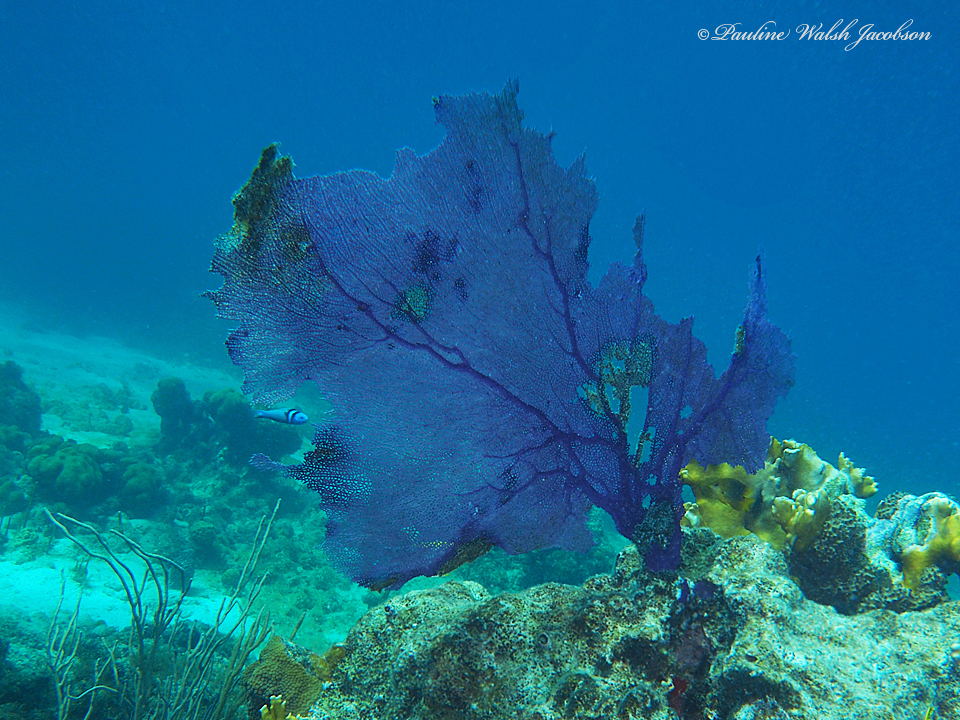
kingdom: Animalia
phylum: Cnidaria
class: Anthozoa
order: Malacalcyonacea
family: Gorgoniidae
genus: Gorgonia
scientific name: Gorgonia ventalina
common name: Common sea fan
